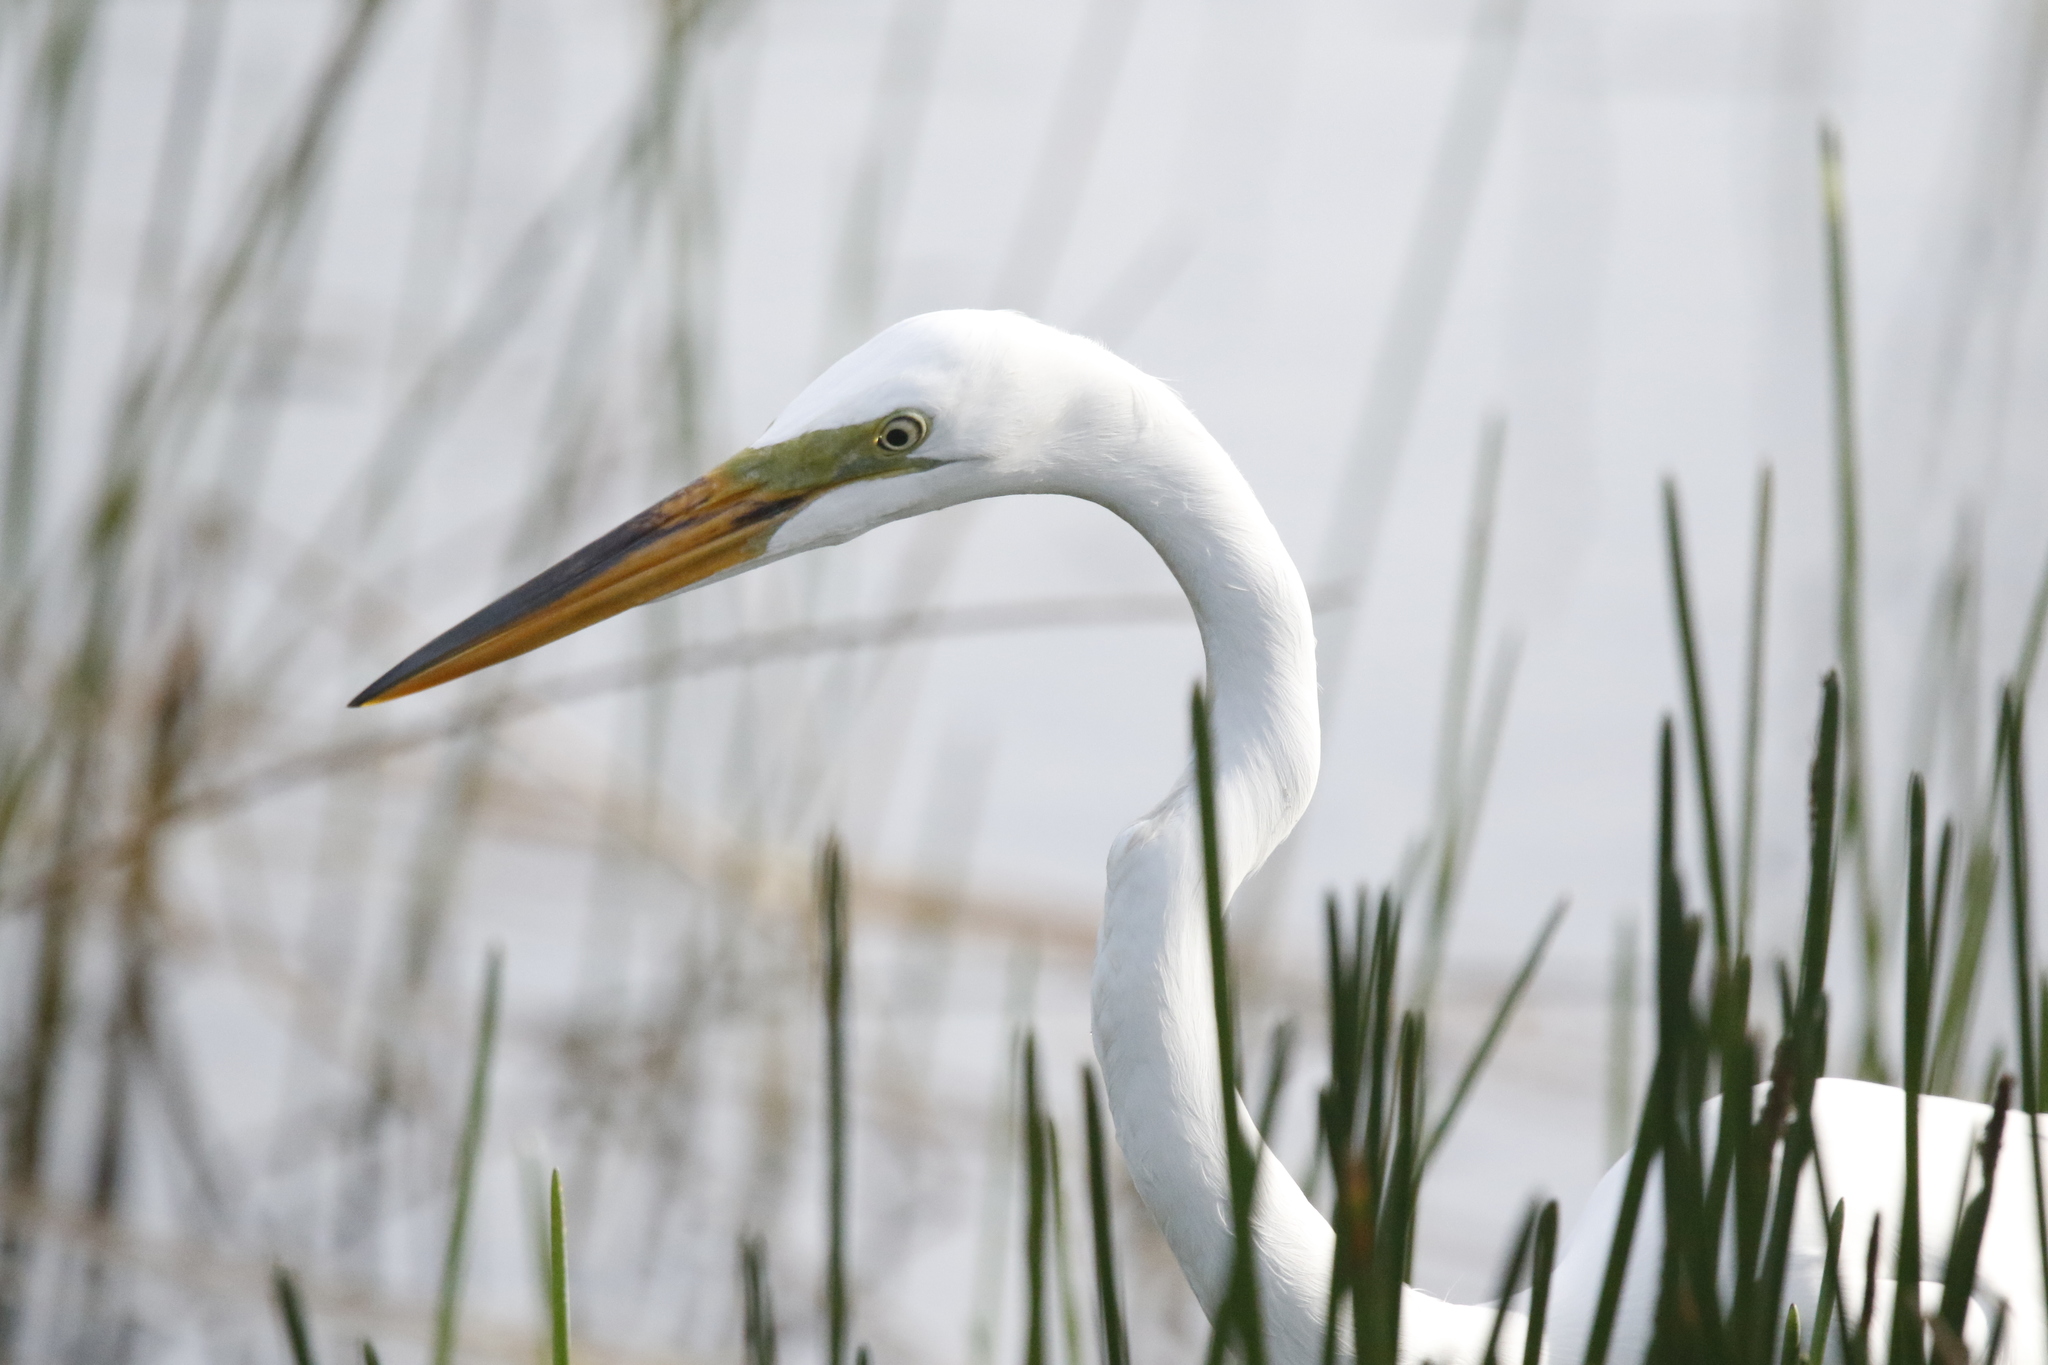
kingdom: Animalia
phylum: Chordata
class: Aves
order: Pelecaniformes
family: Ardeidae
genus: Ardea
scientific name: Ardea alba
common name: Great egret
